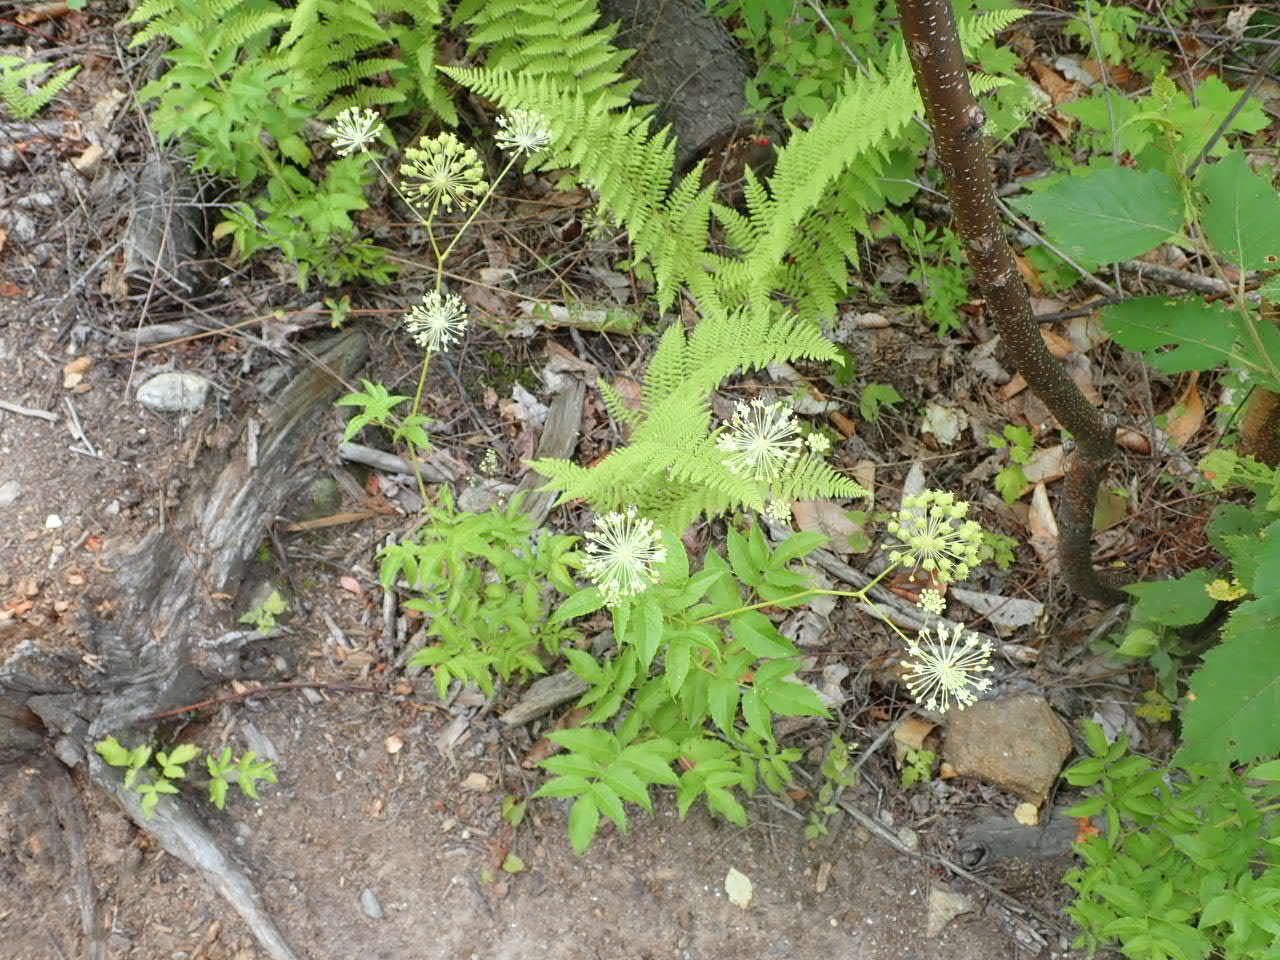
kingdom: Plantae
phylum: Tracheophyta
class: Magnoliopsida
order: Apiales
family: Araliaceae
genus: Aralia
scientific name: Aralia hispida
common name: Bristly sarsaparilla
